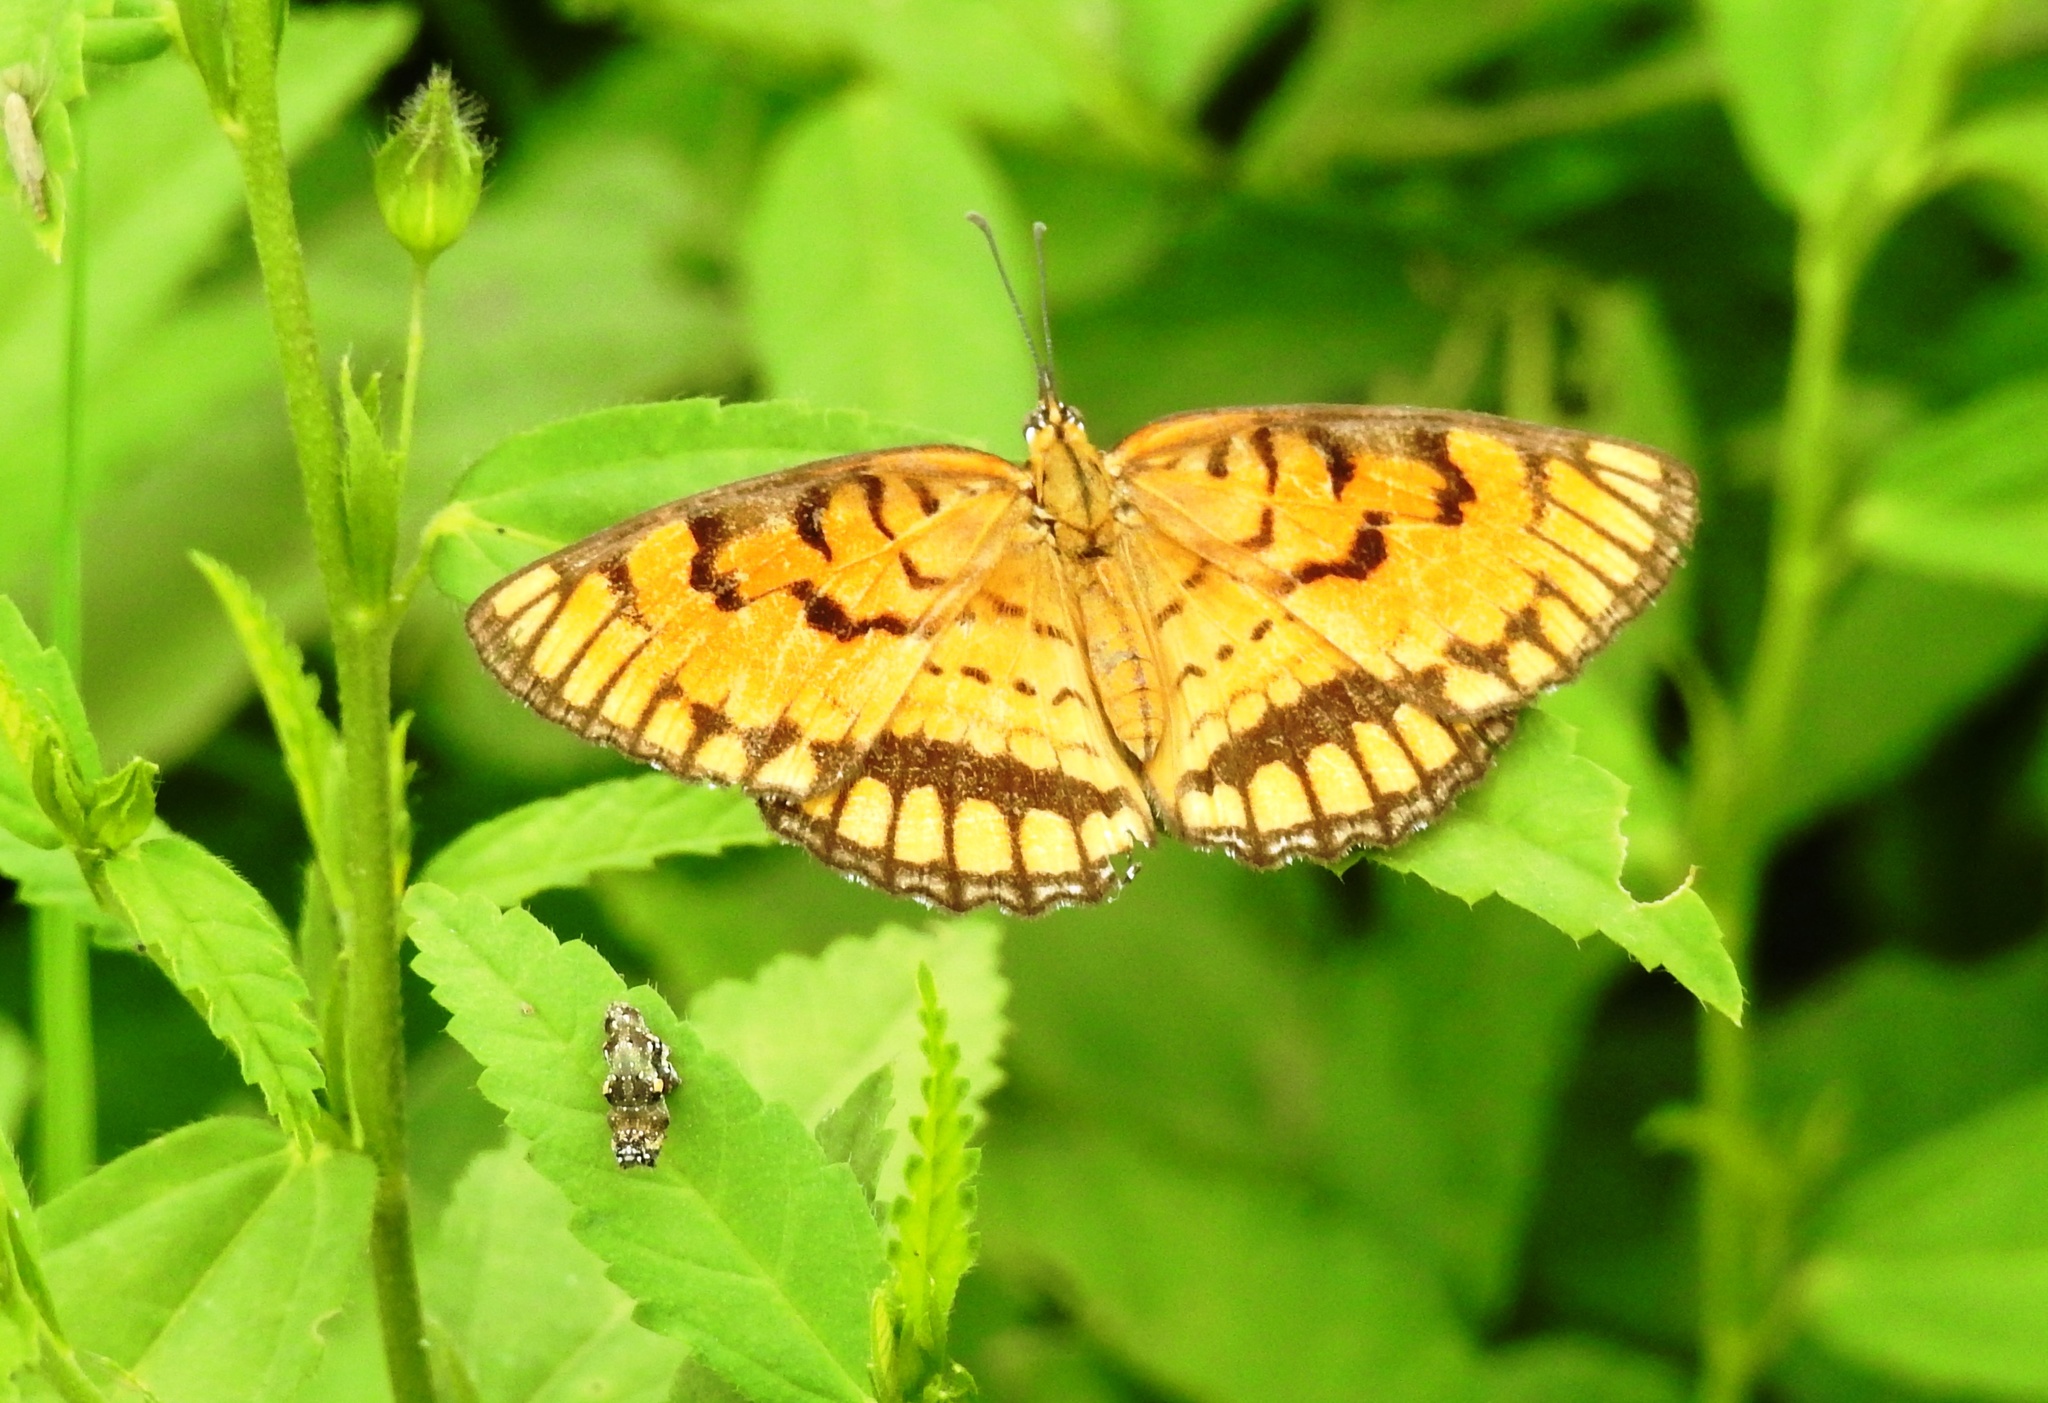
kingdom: Animalia
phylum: Arthropoda
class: Insecta
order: Lepidoptera
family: Nymphalidae
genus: Byblia
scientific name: Byblia ilithyia
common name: Spotted joker
